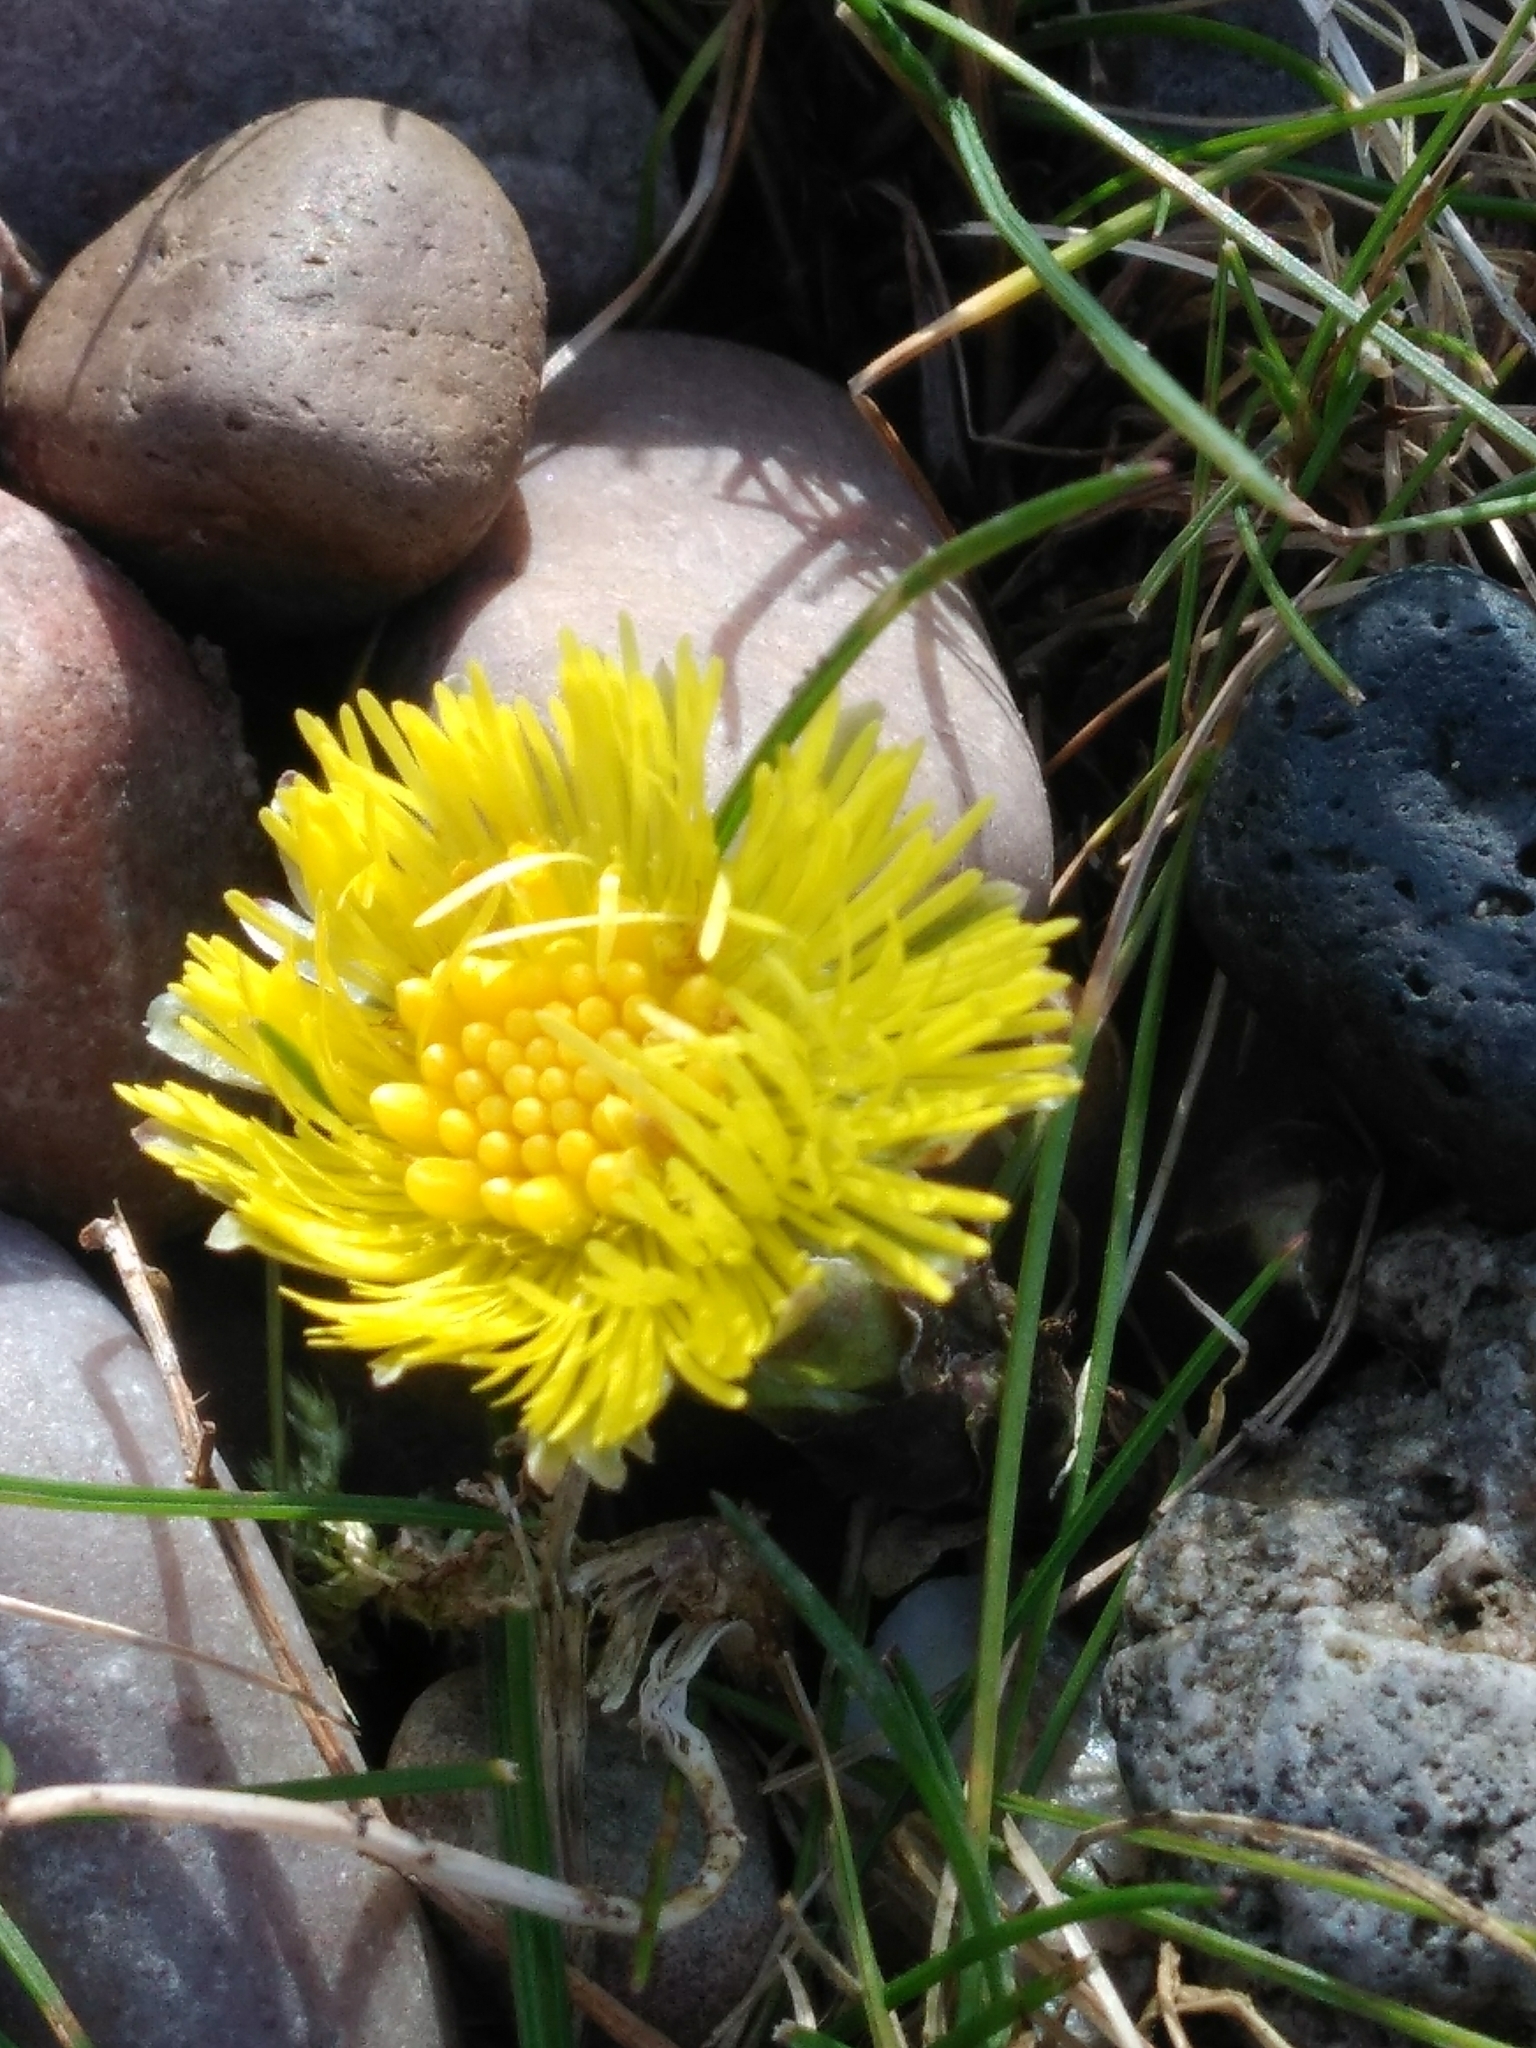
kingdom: Plantae
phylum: Tracheophyta
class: Magnoliopsida
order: Asterales
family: Asteraceae
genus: Tussilago
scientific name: Tussilago farfara
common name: Coltsfoot
